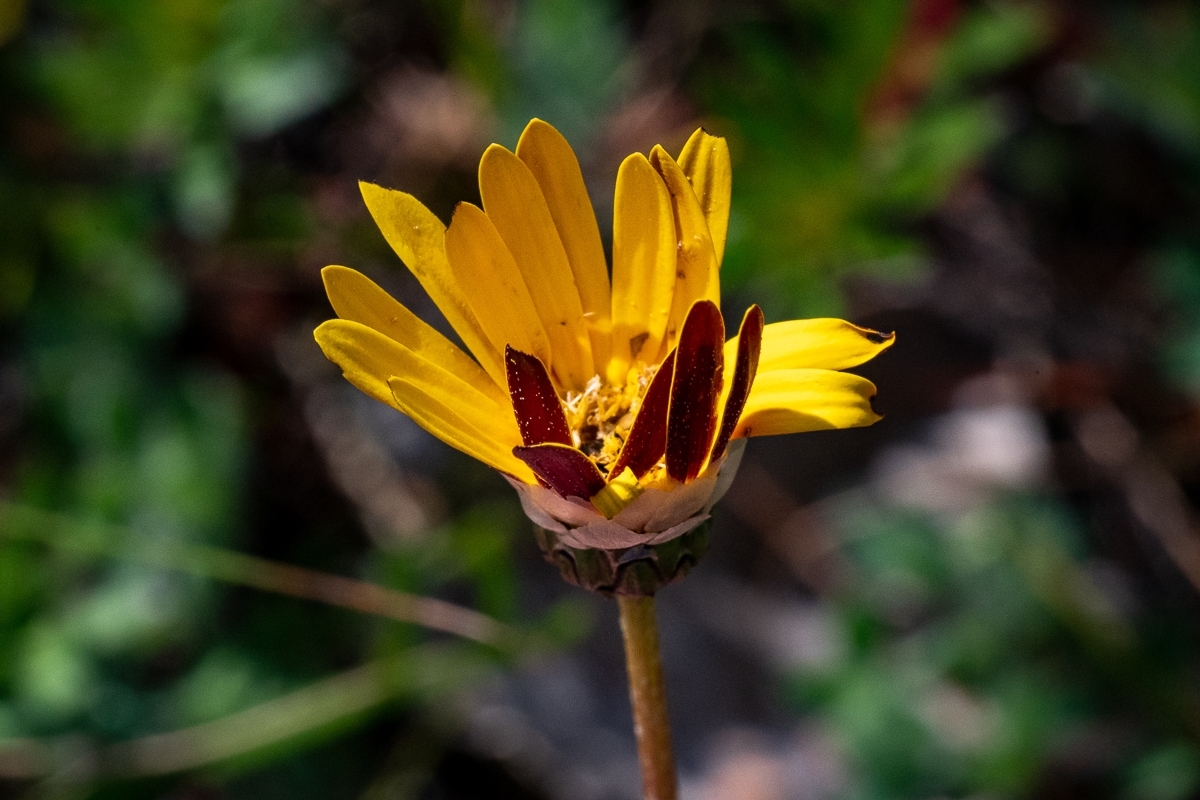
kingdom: Plantae
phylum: Tracheophyta
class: Magnoliopsida
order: Asterales
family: Asteraceae
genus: Ursinia
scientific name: Ursinia paleacea
